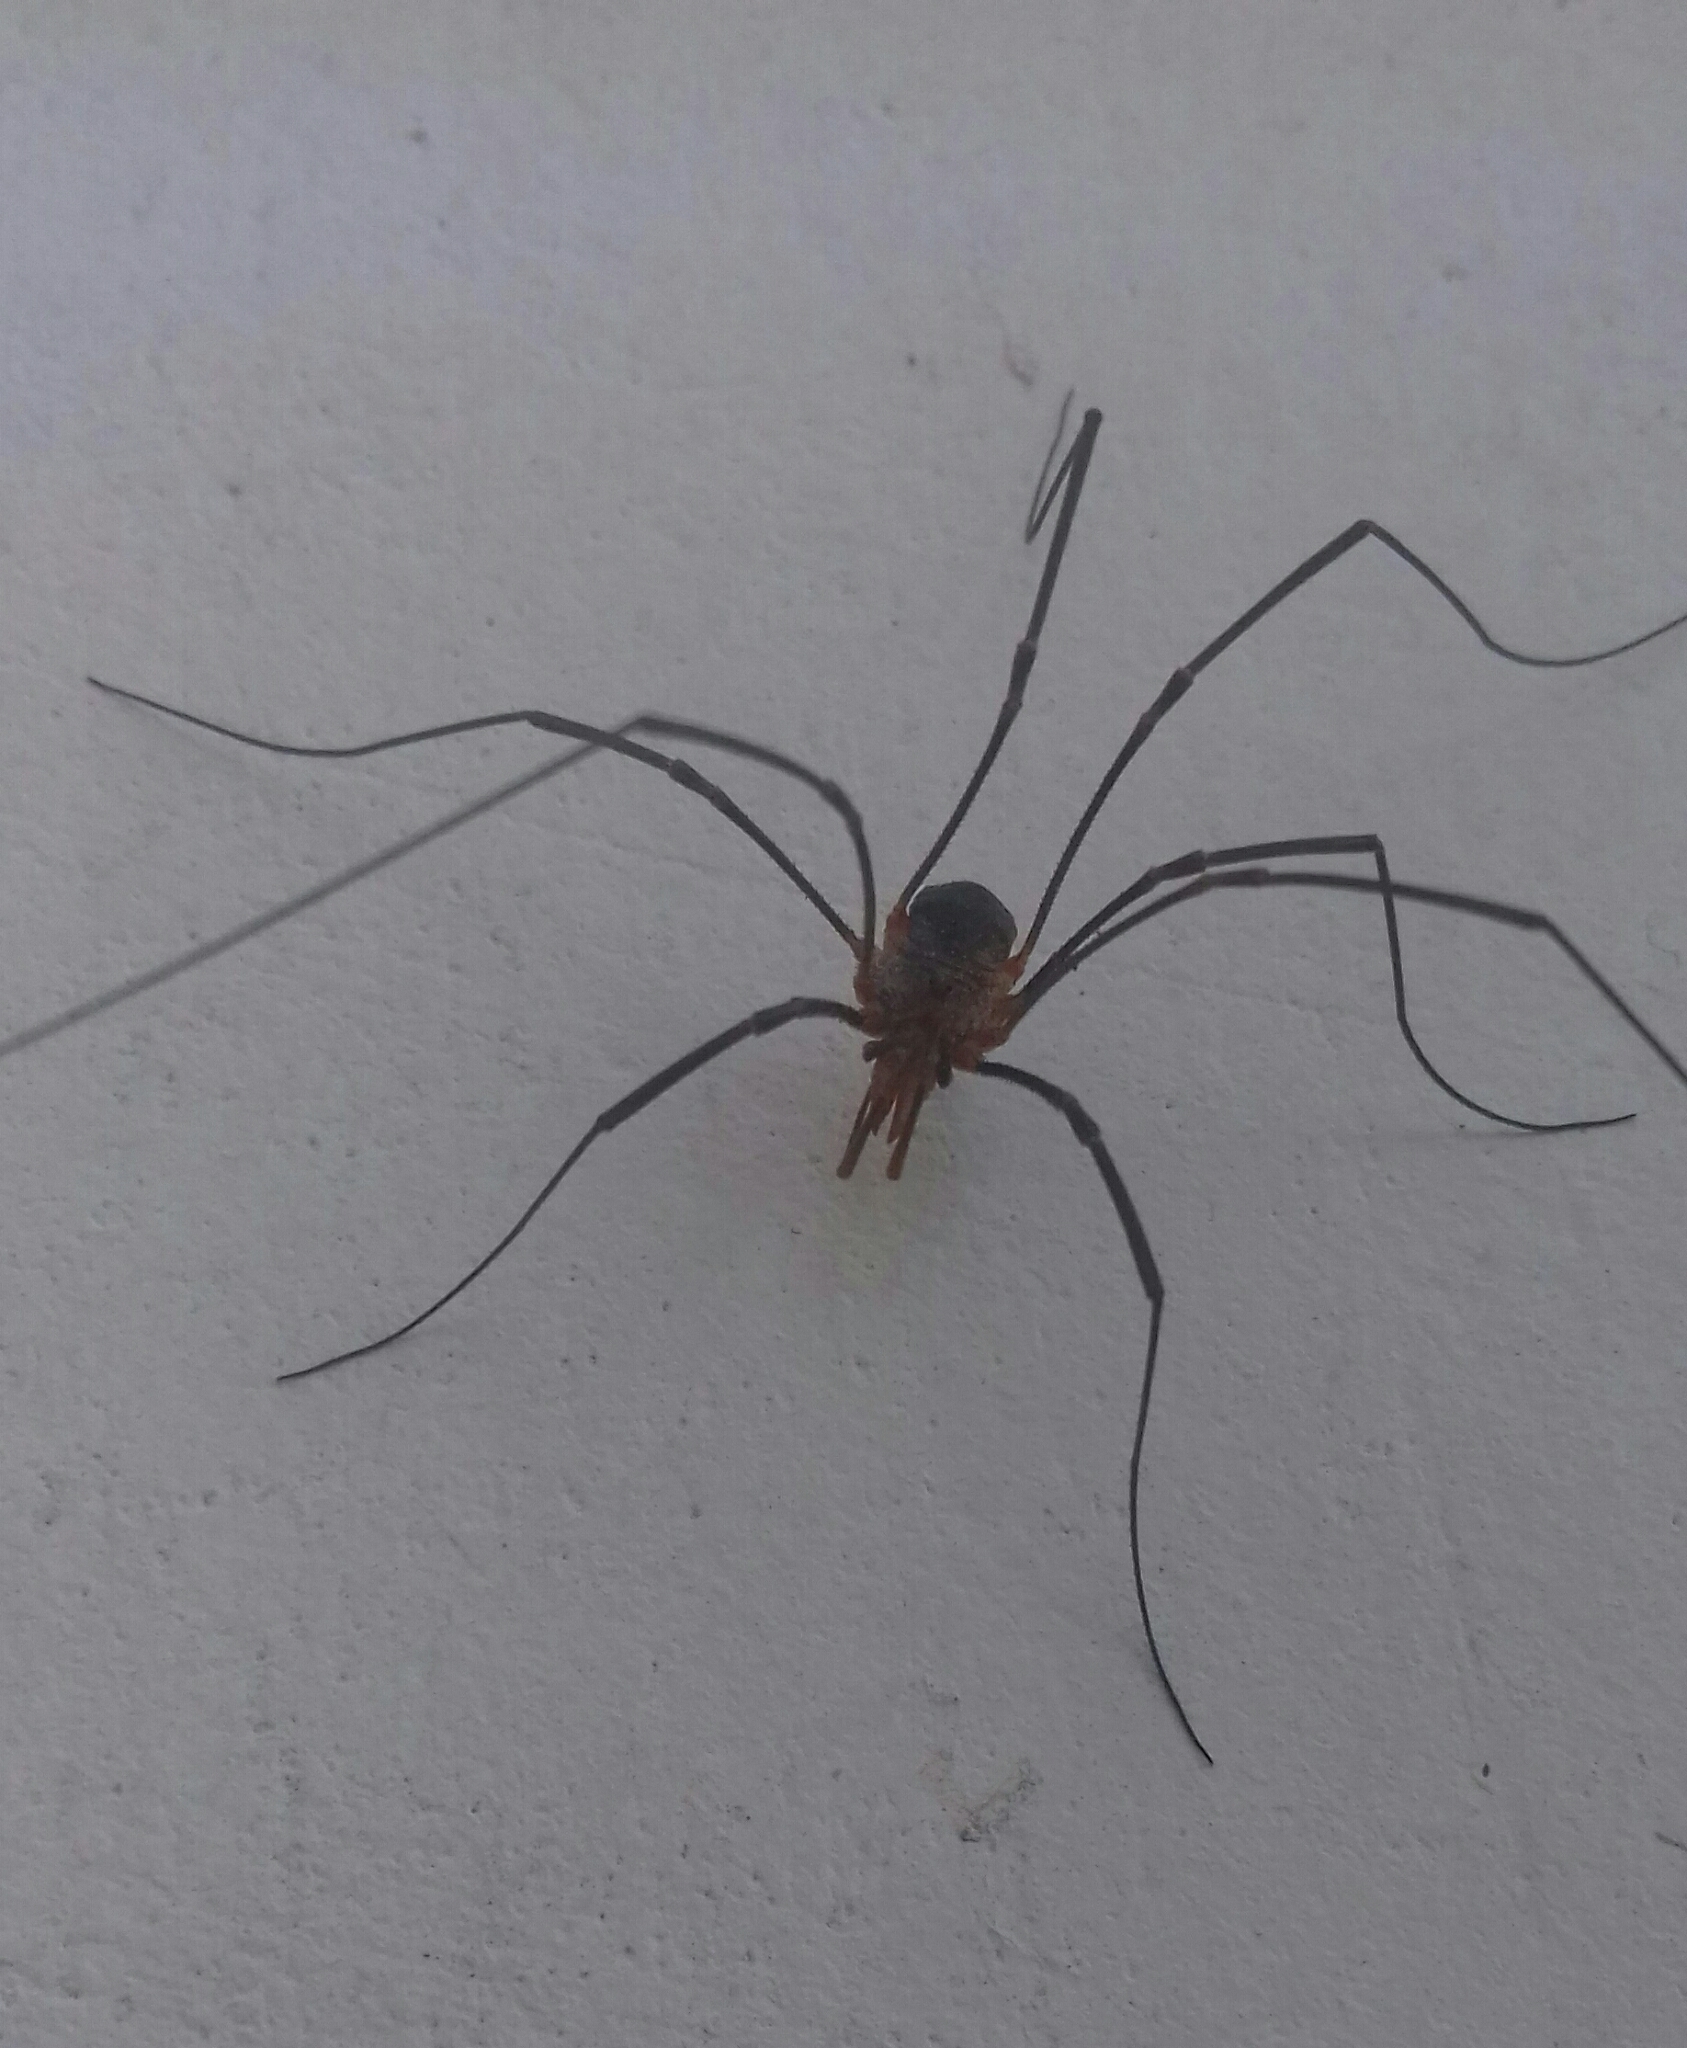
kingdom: Animalia
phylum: Arthropoda
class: Arachnida
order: Opiliones
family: Phalangiidae
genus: Phalangium
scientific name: Phalangium opilio
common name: Daddy longleg
